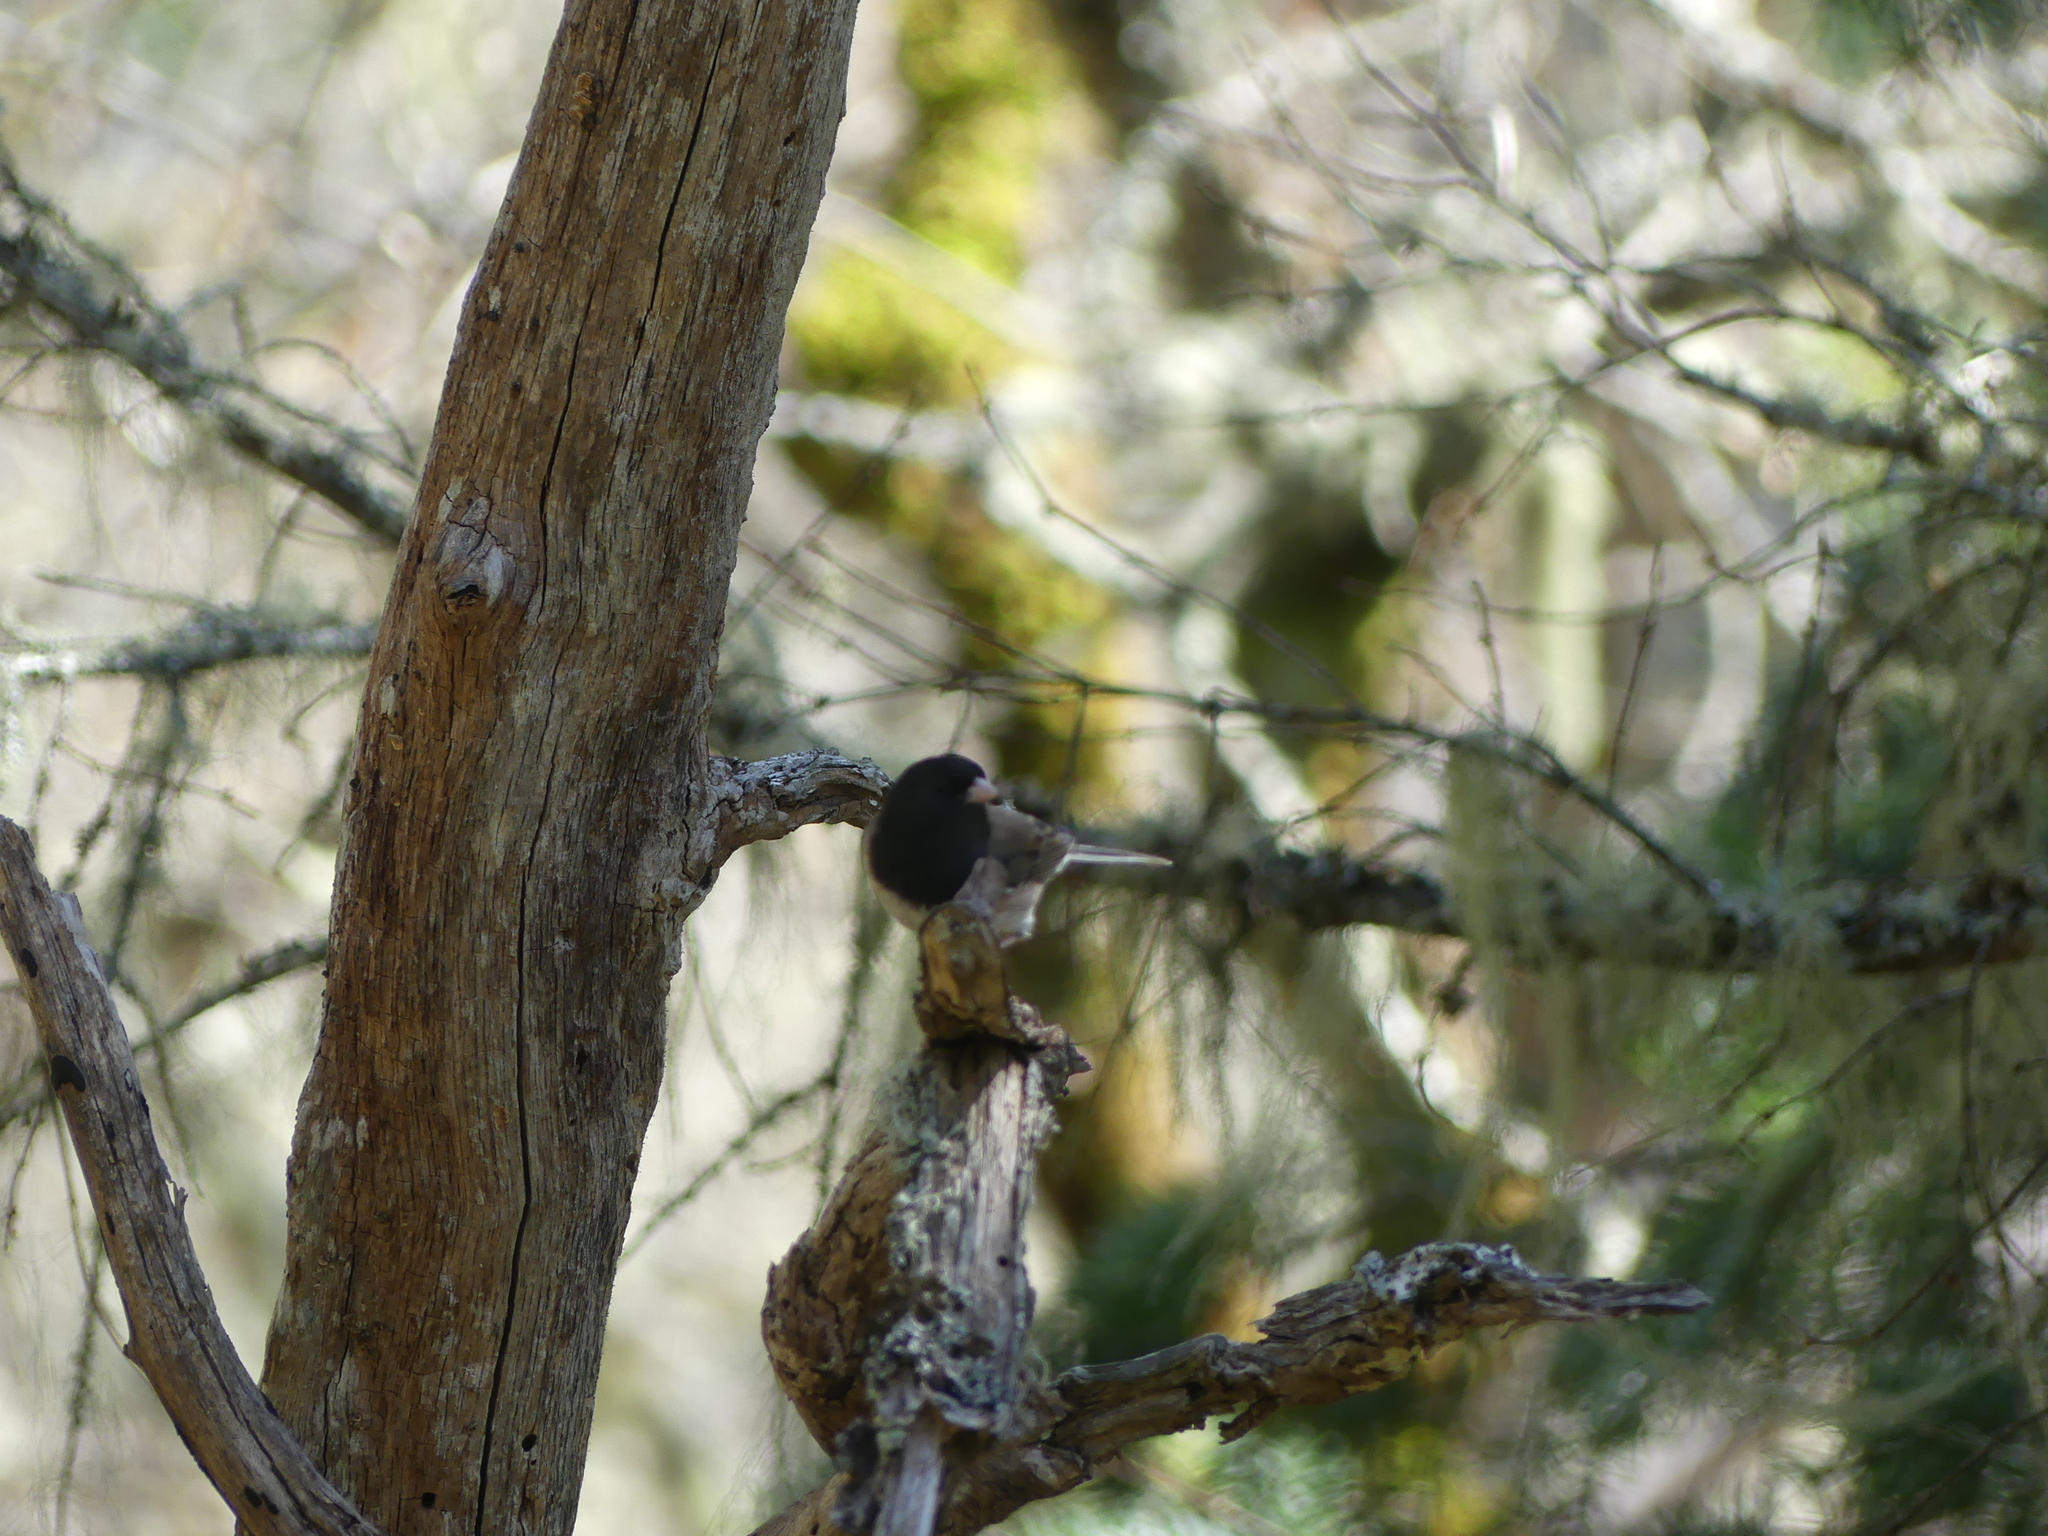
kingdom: Animalia
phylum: Chordata
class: Aves
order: Passeriformes
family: Passerellidae
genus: Junco
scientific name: Junco hyemalis
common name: Dark-eyed junco
